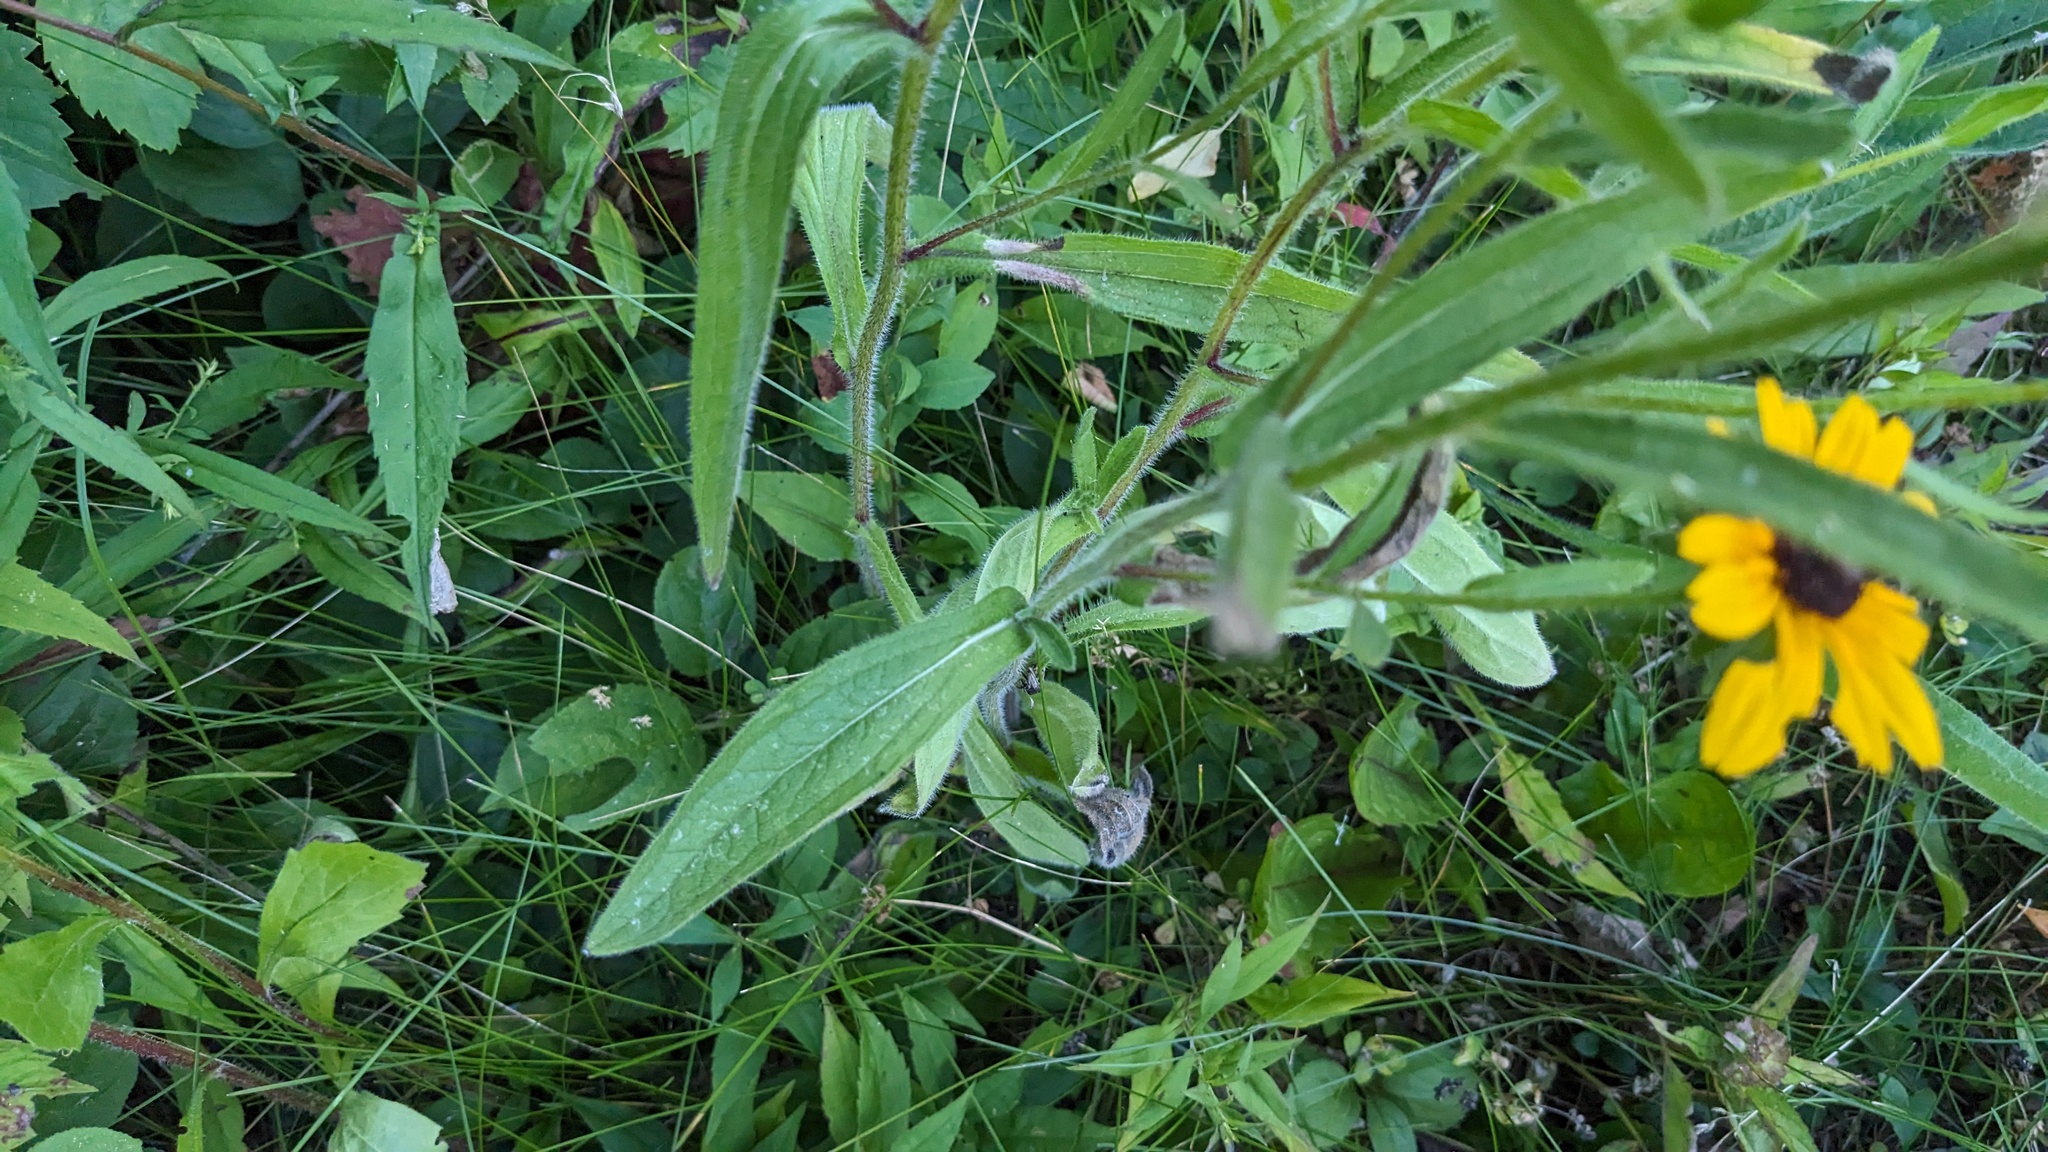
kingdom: Plantae
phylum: Tracheophyta
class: Magnoliopsida
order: Asterales
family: Asteraceae
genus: Rudbeckia
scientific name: Rudbeckia hirta
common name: Black-eyed-susan
